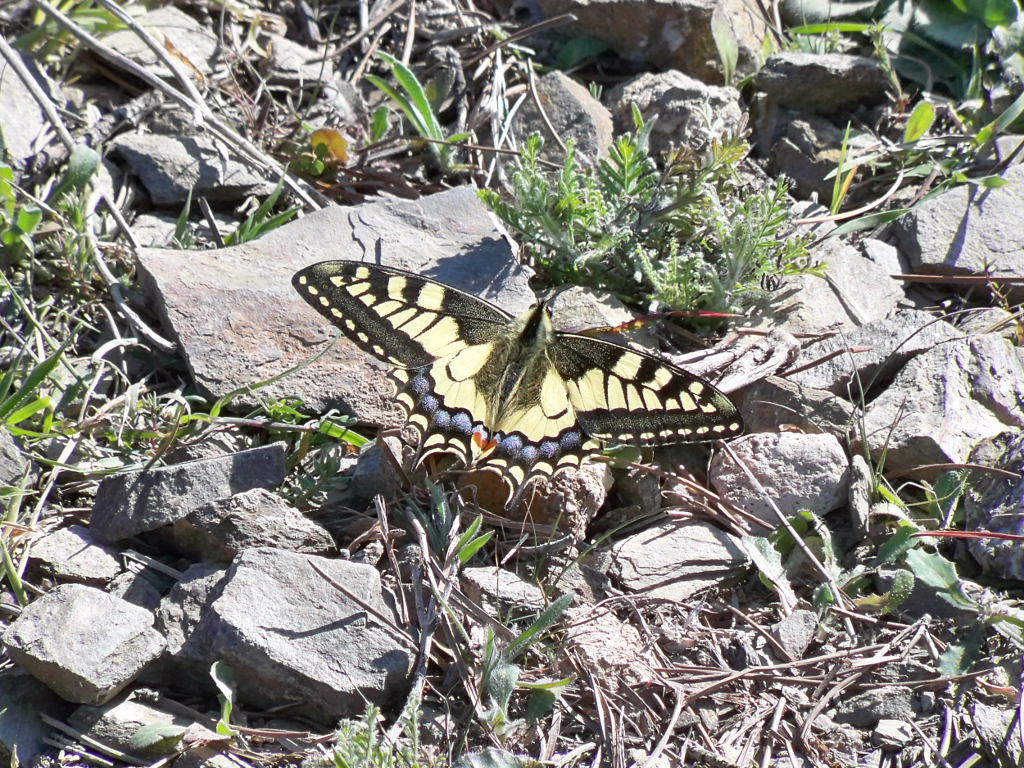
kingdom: Animalia
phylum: Arthropoda
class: Insecta
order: Lepidoptera
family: Papilionidae
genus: Papilio
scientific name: Papilio machaon
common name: Swallowtail
